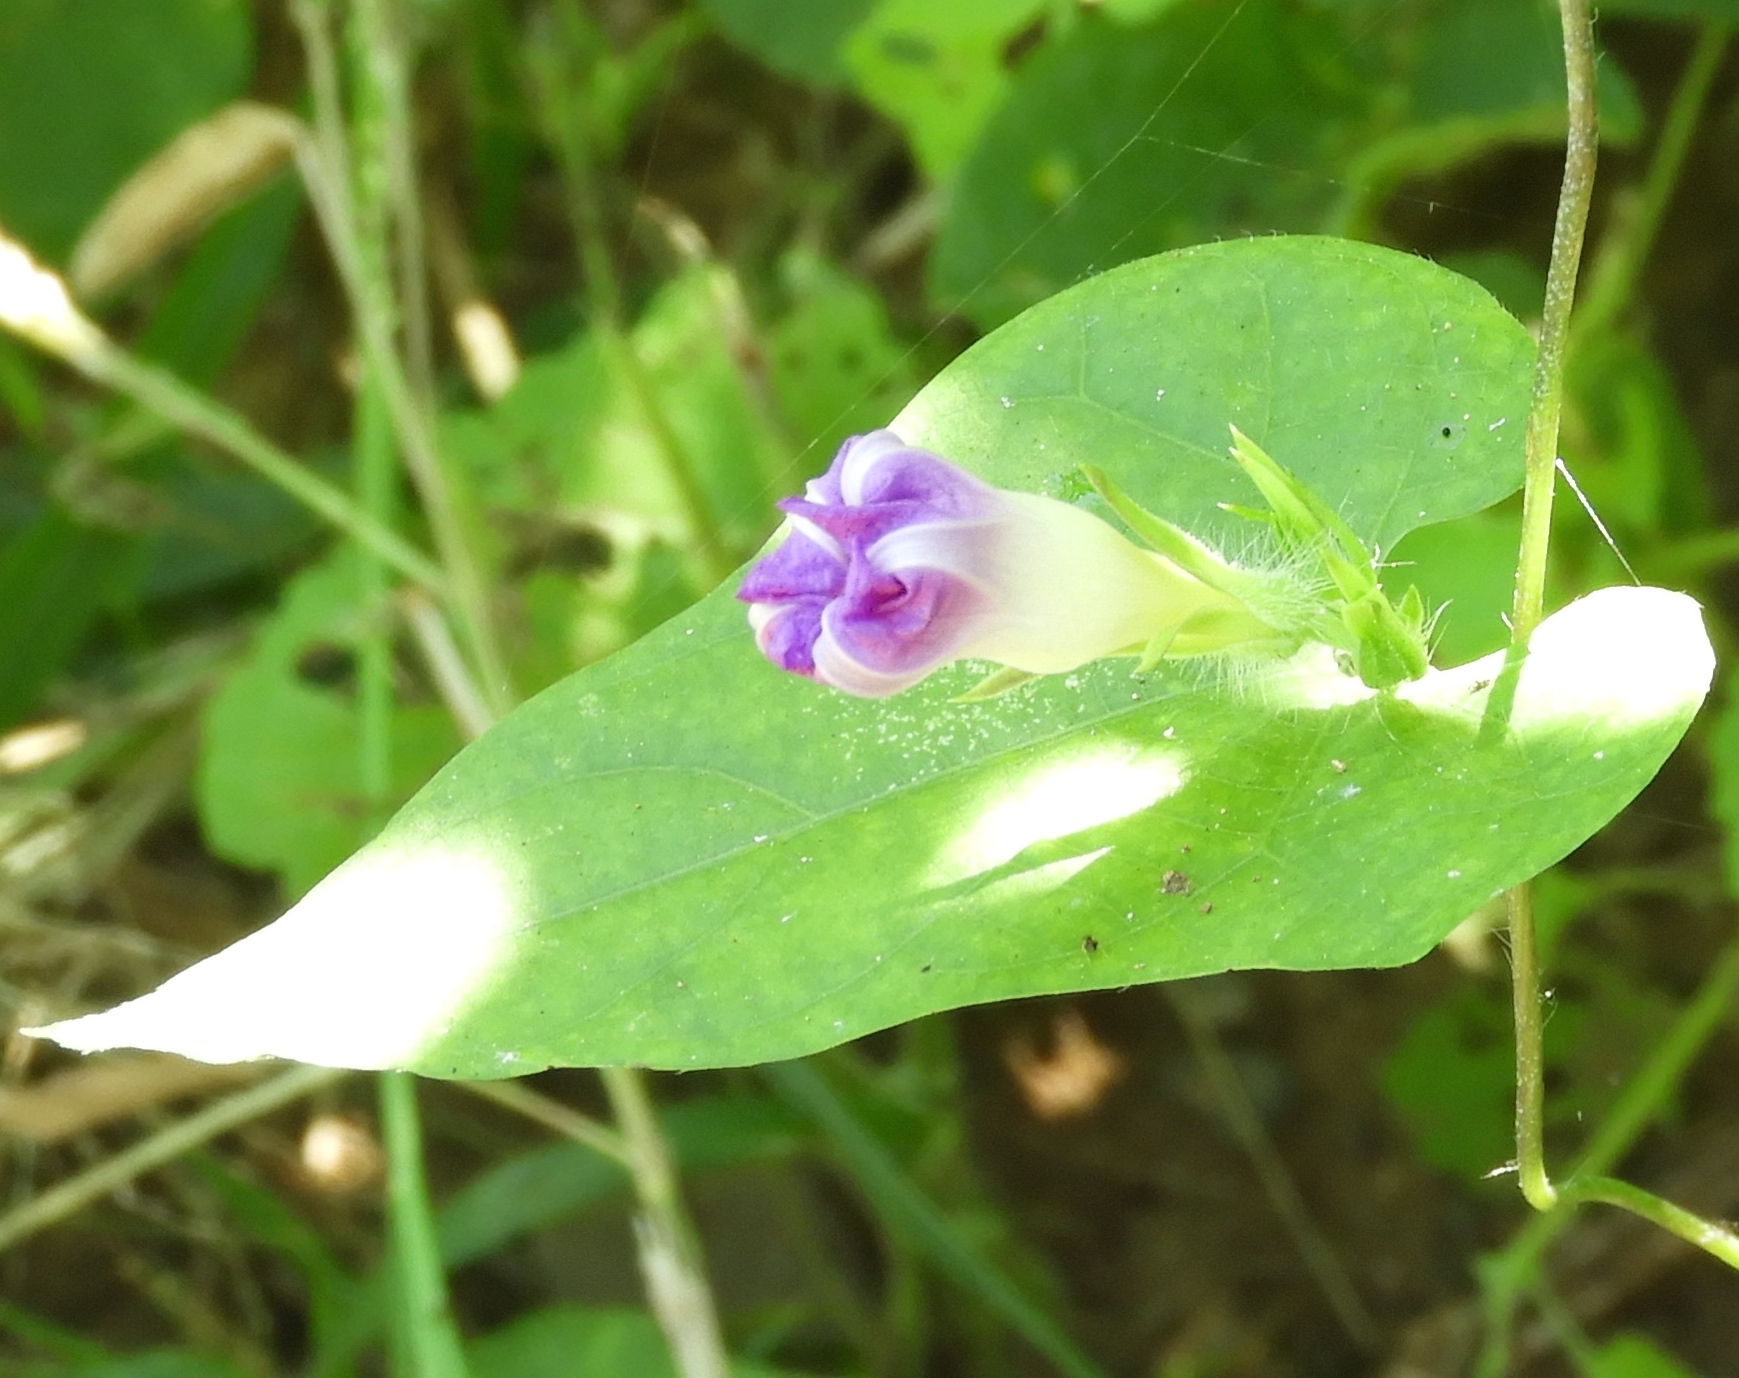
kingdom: Plantae
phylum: Tracheophyta
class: Magnoliopsida
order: Solanales
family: Convolvulaceae
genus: Ipomoea
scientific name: Ipomoea meyeri
